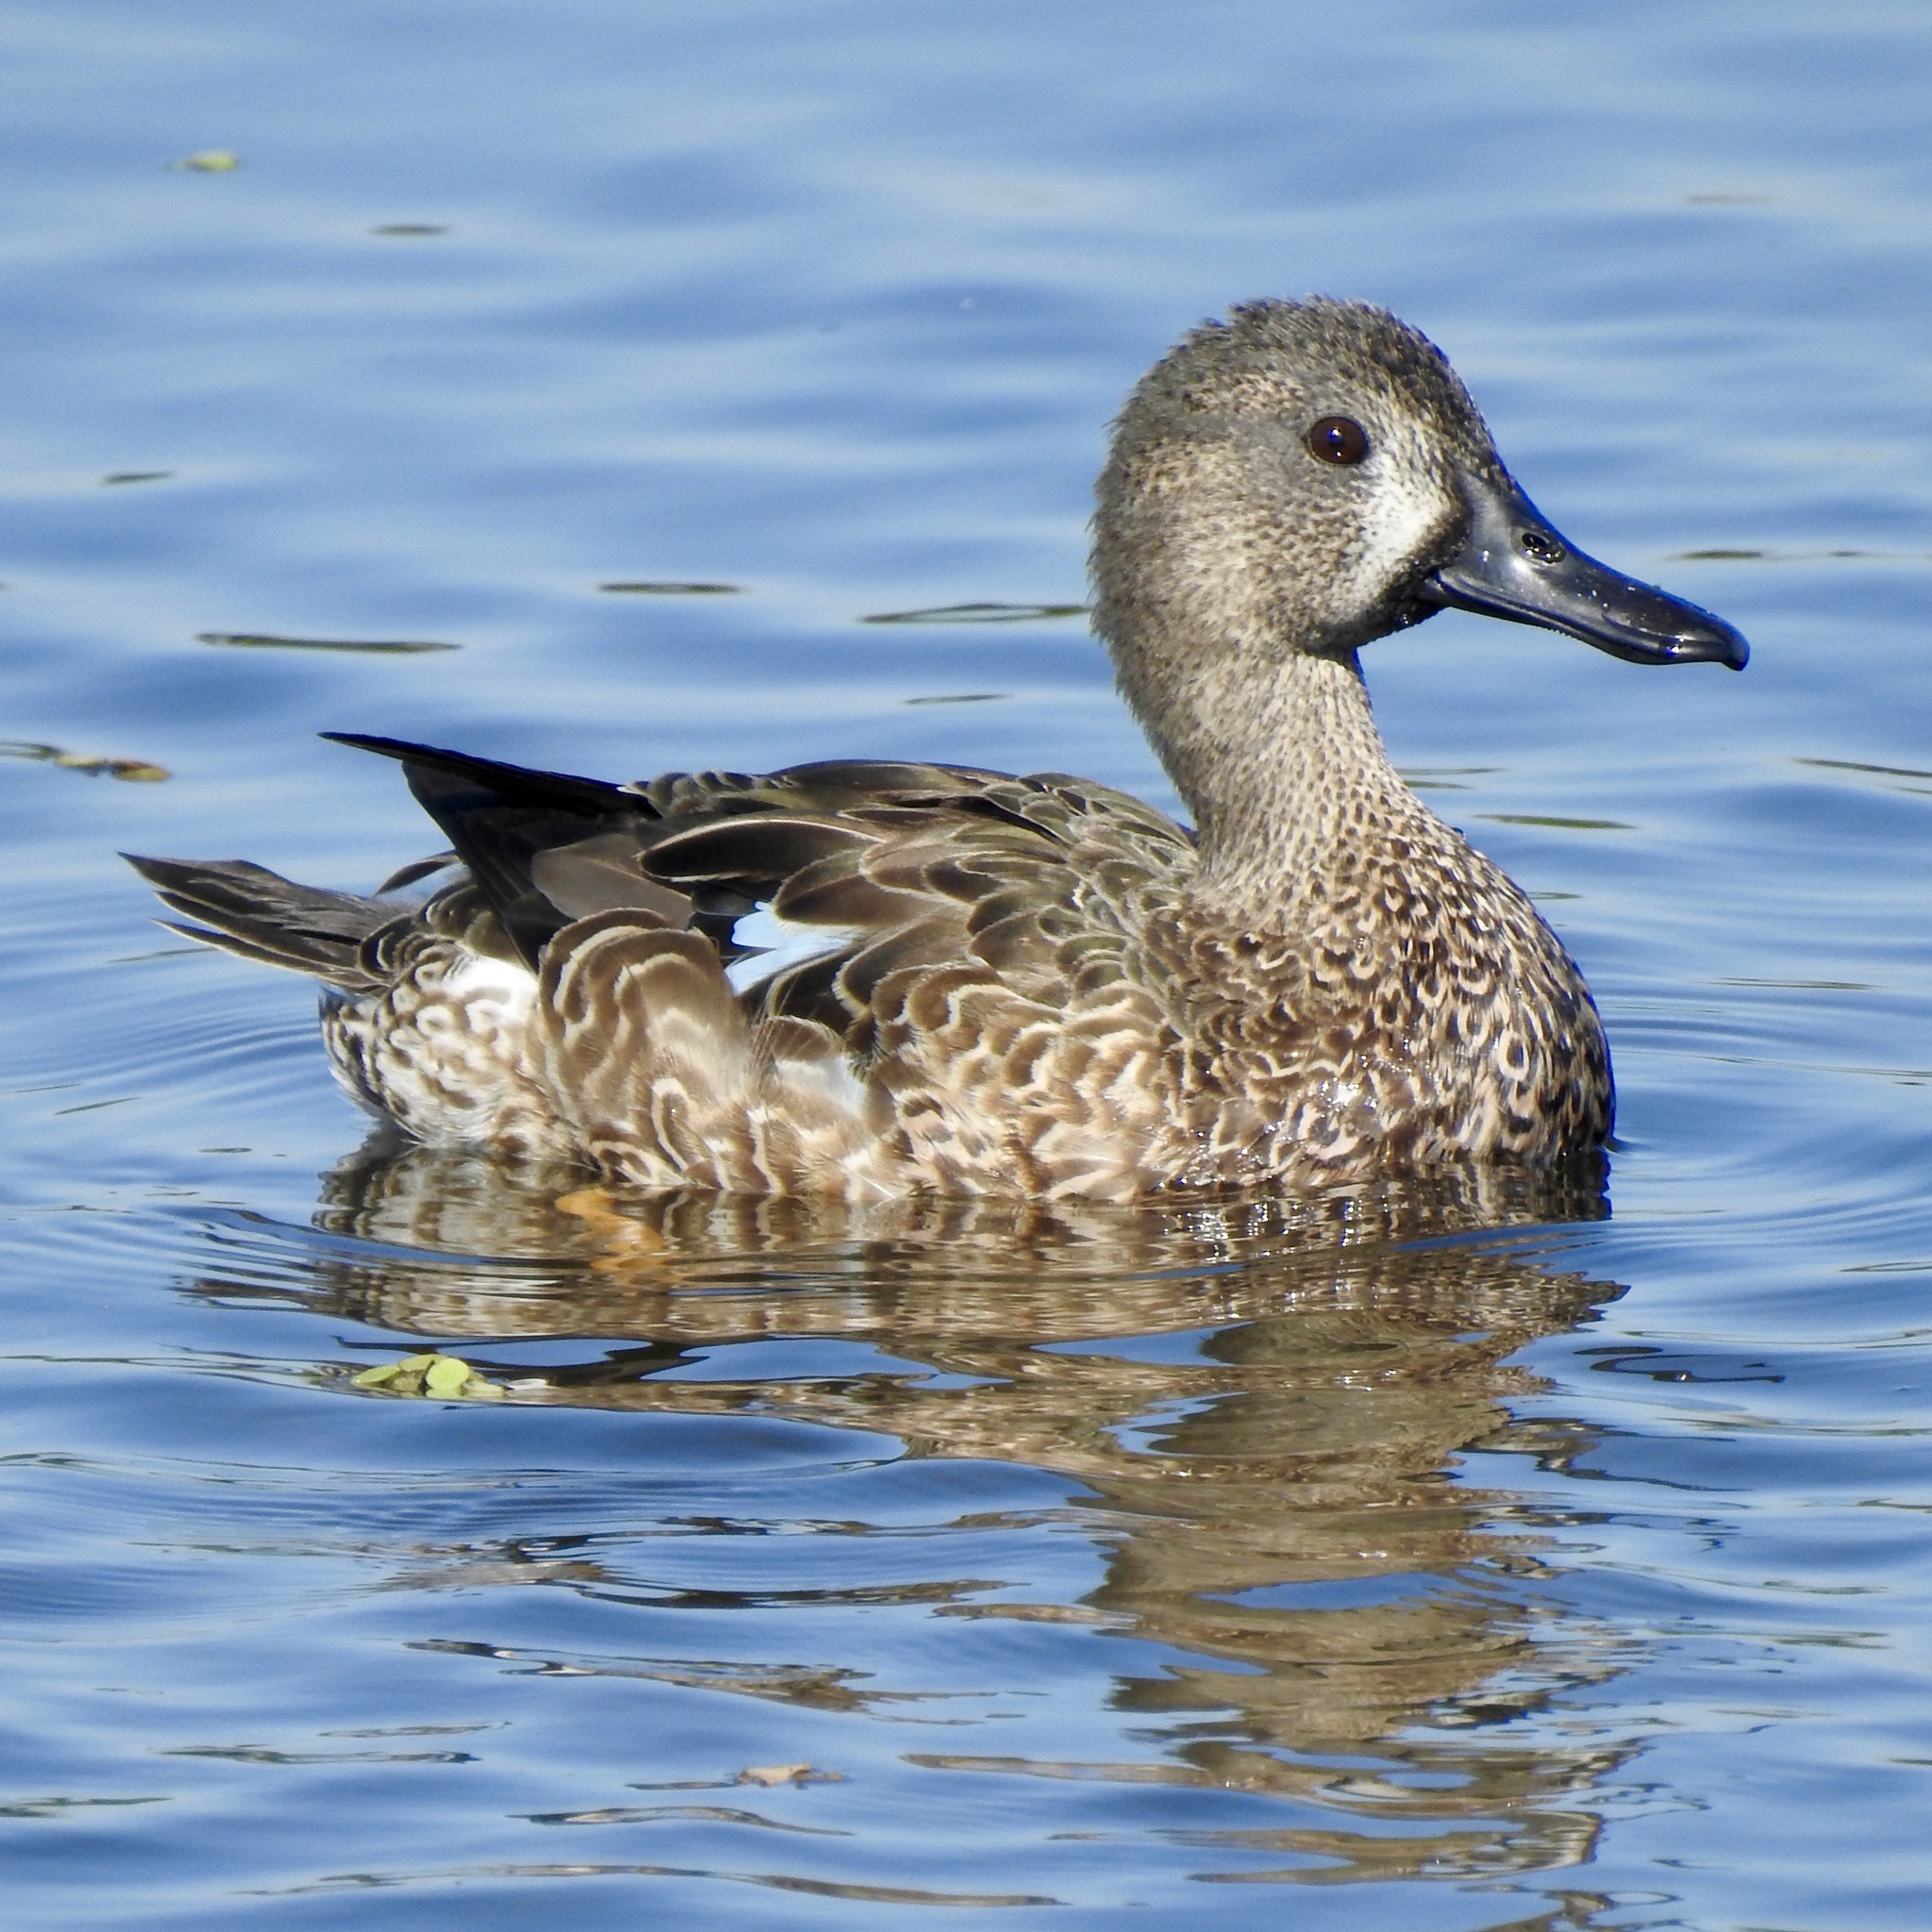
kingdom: Animalia
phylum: Chordata
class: Aves
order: Anseriformes
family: Anatidae
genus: Spatula
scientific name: Spatula discors
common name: Blue-winged teal
